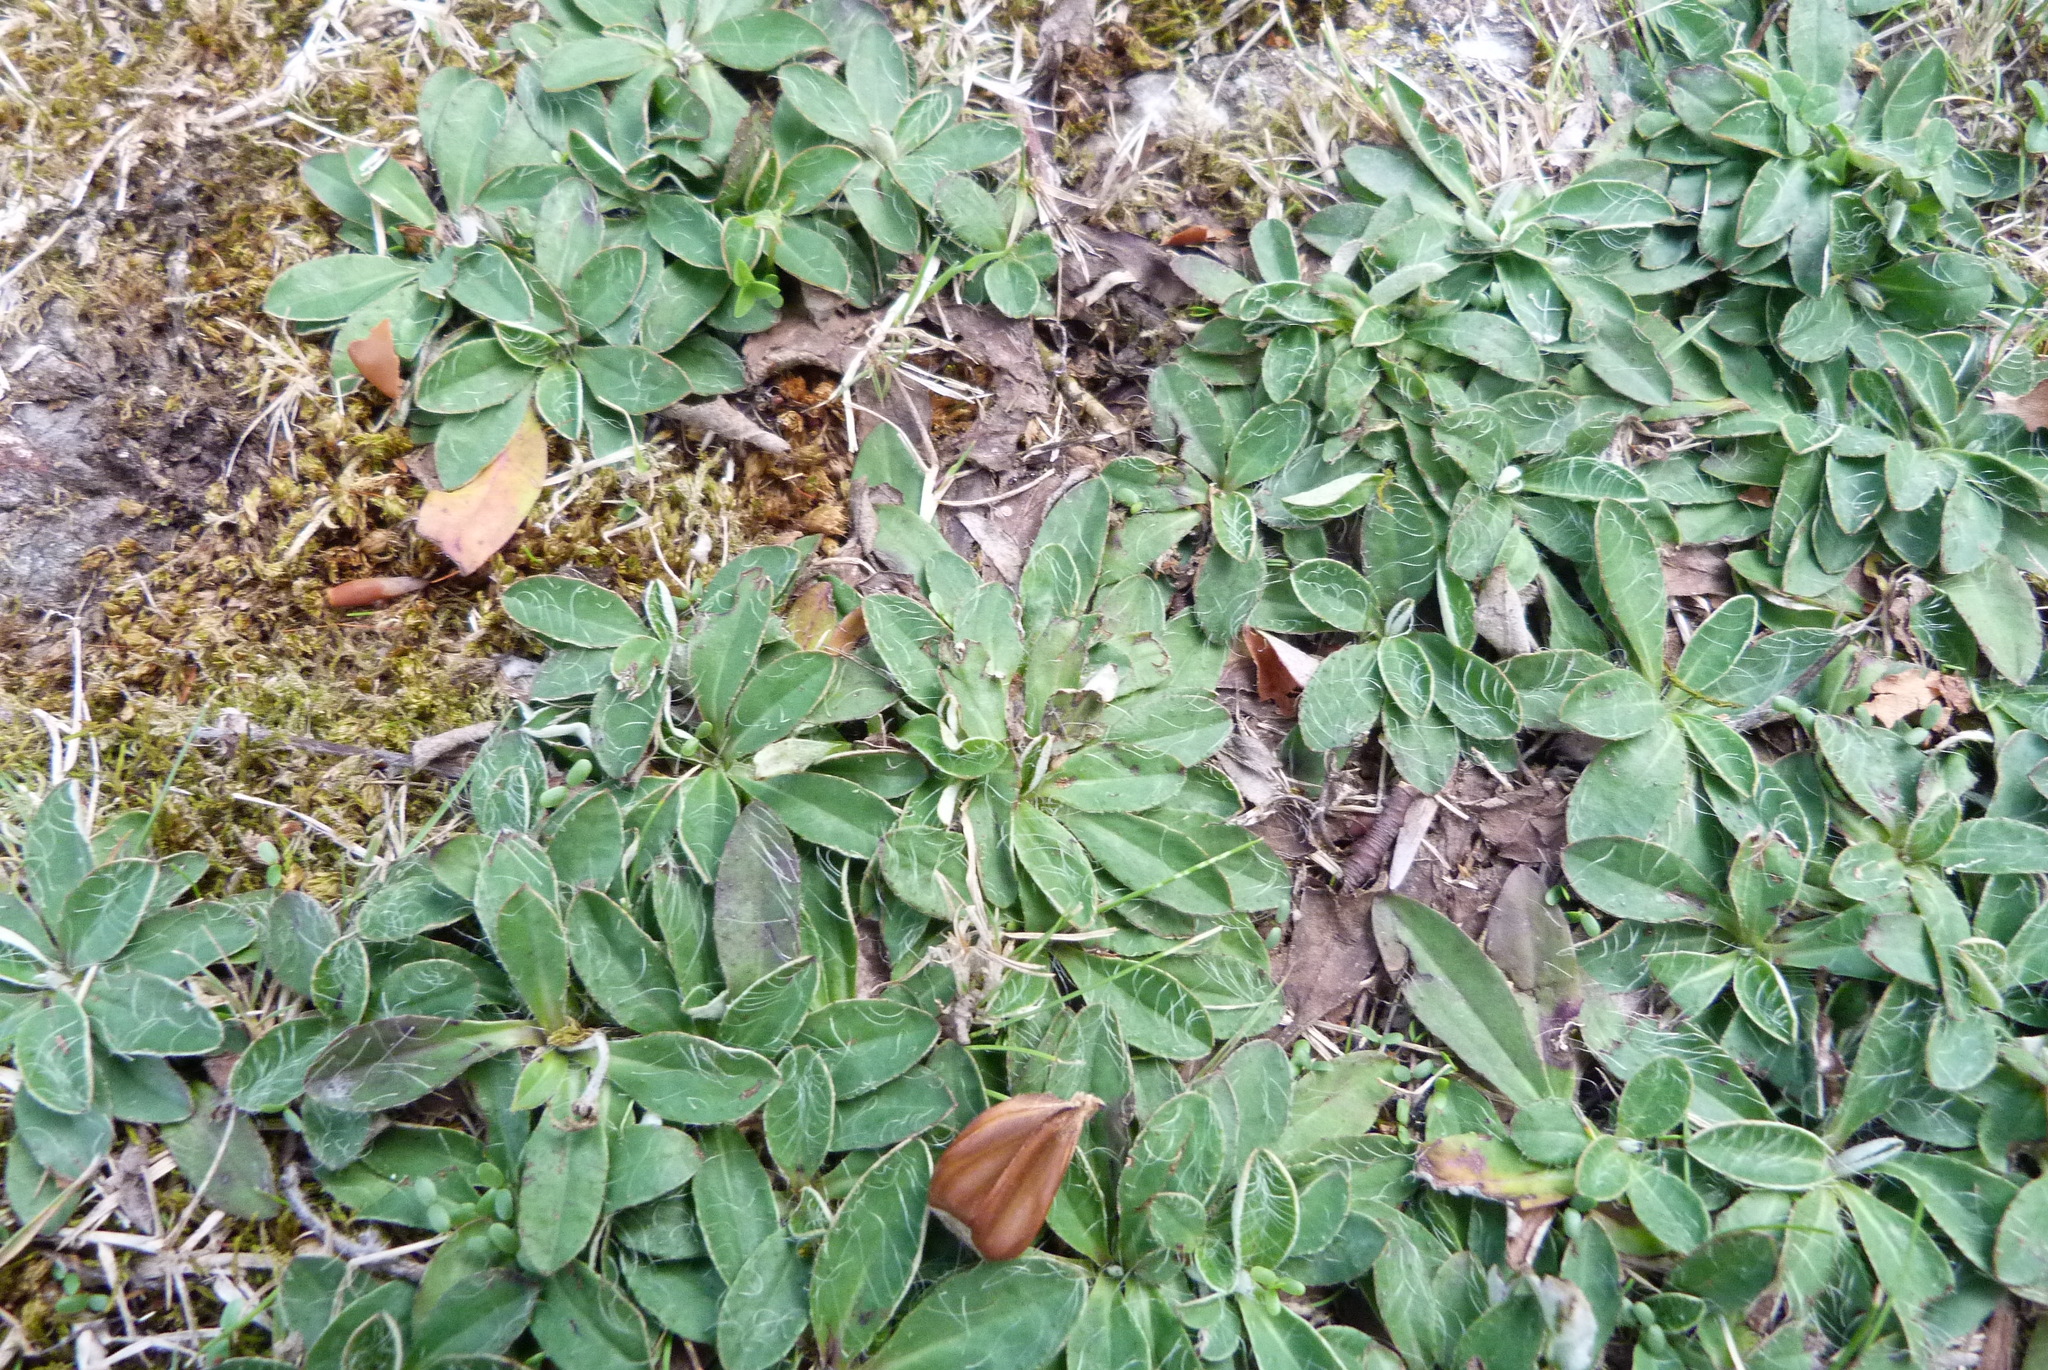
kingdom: Plantae
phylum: Tracheophyta
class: Magnoliopsida
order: Asterales
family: Asteraceae
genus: Pilosella
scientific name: Pilosella officinarum
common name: Mouse-ear hawkweed
